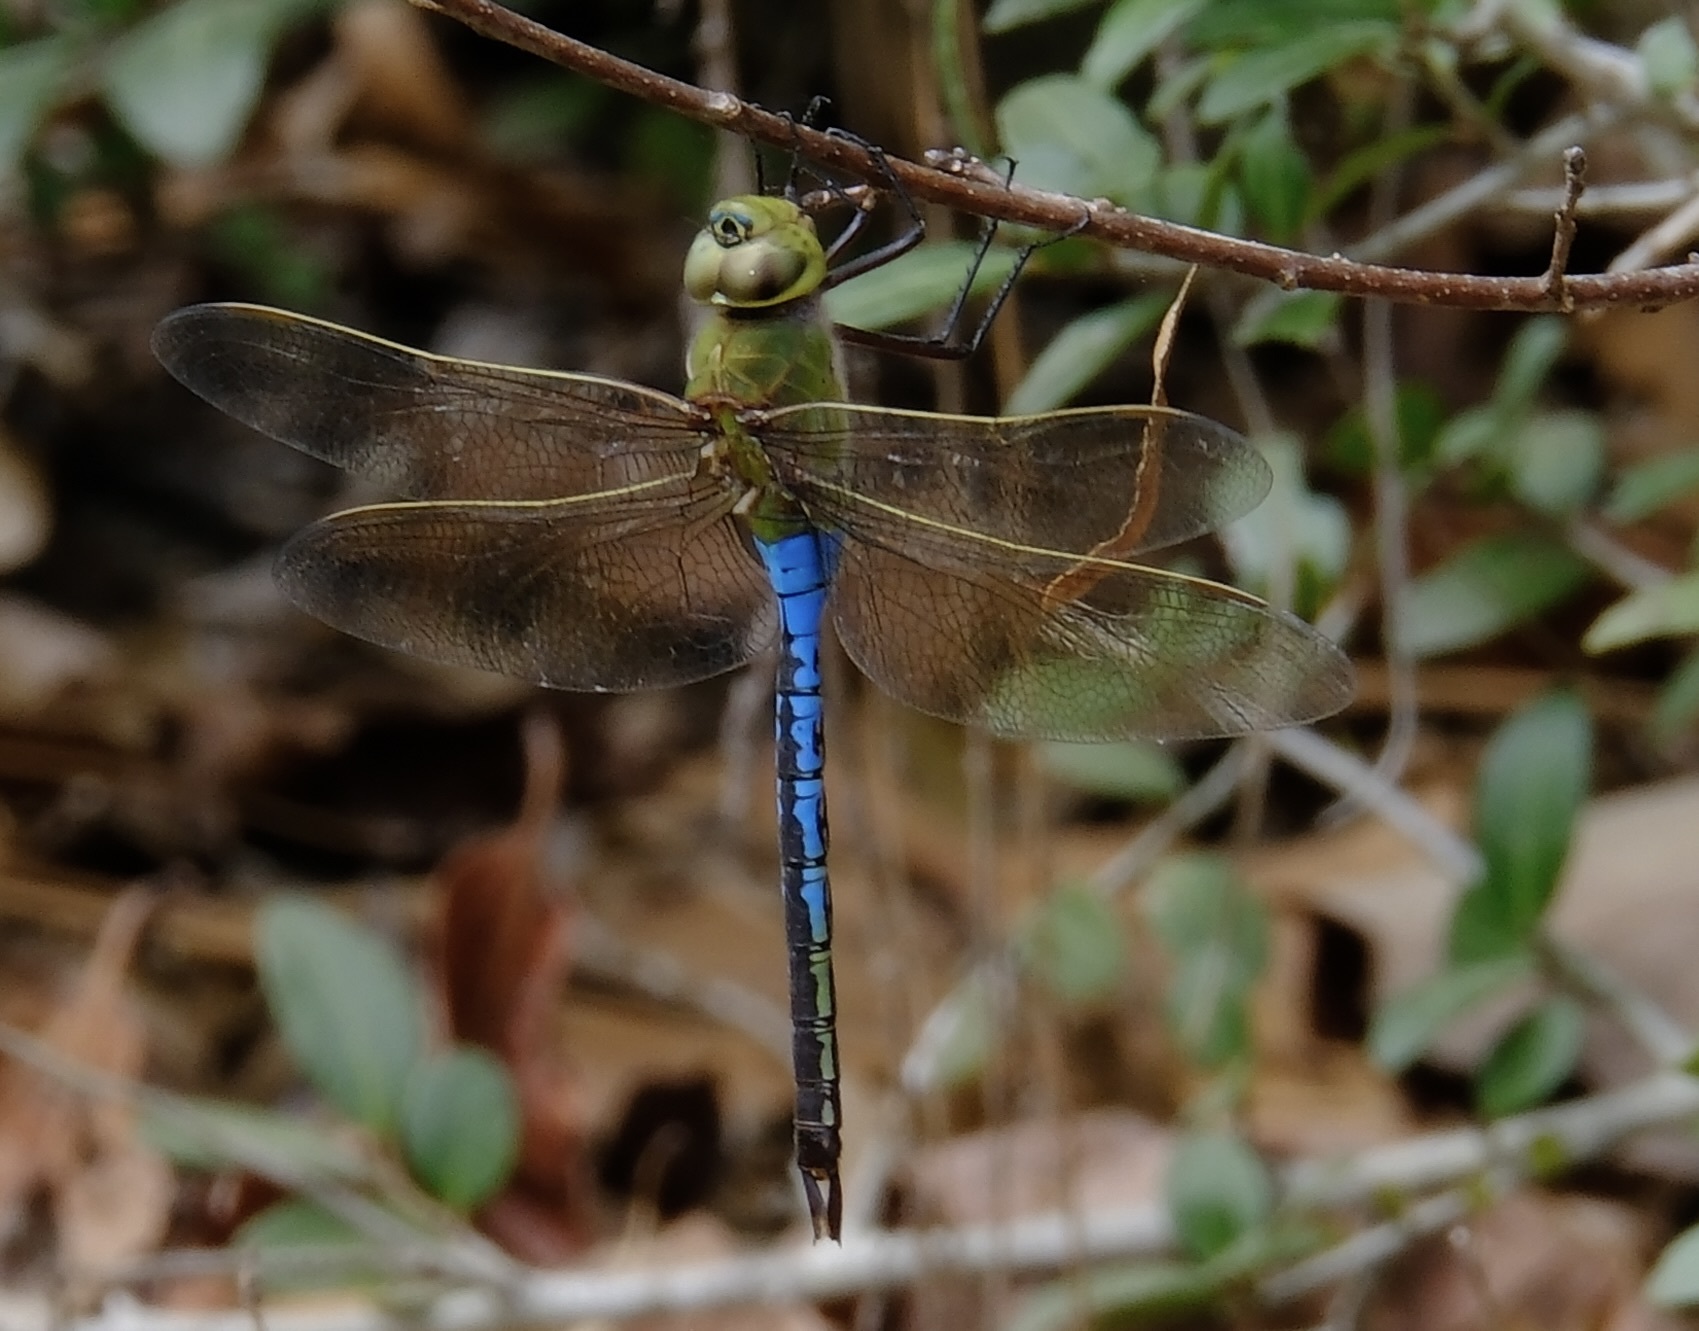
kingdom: Animalia
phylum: Arthropoda
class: Insecta
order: Odonata
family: Aeshnidae
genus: Anax
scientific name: Anax junius
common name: Common green darner
